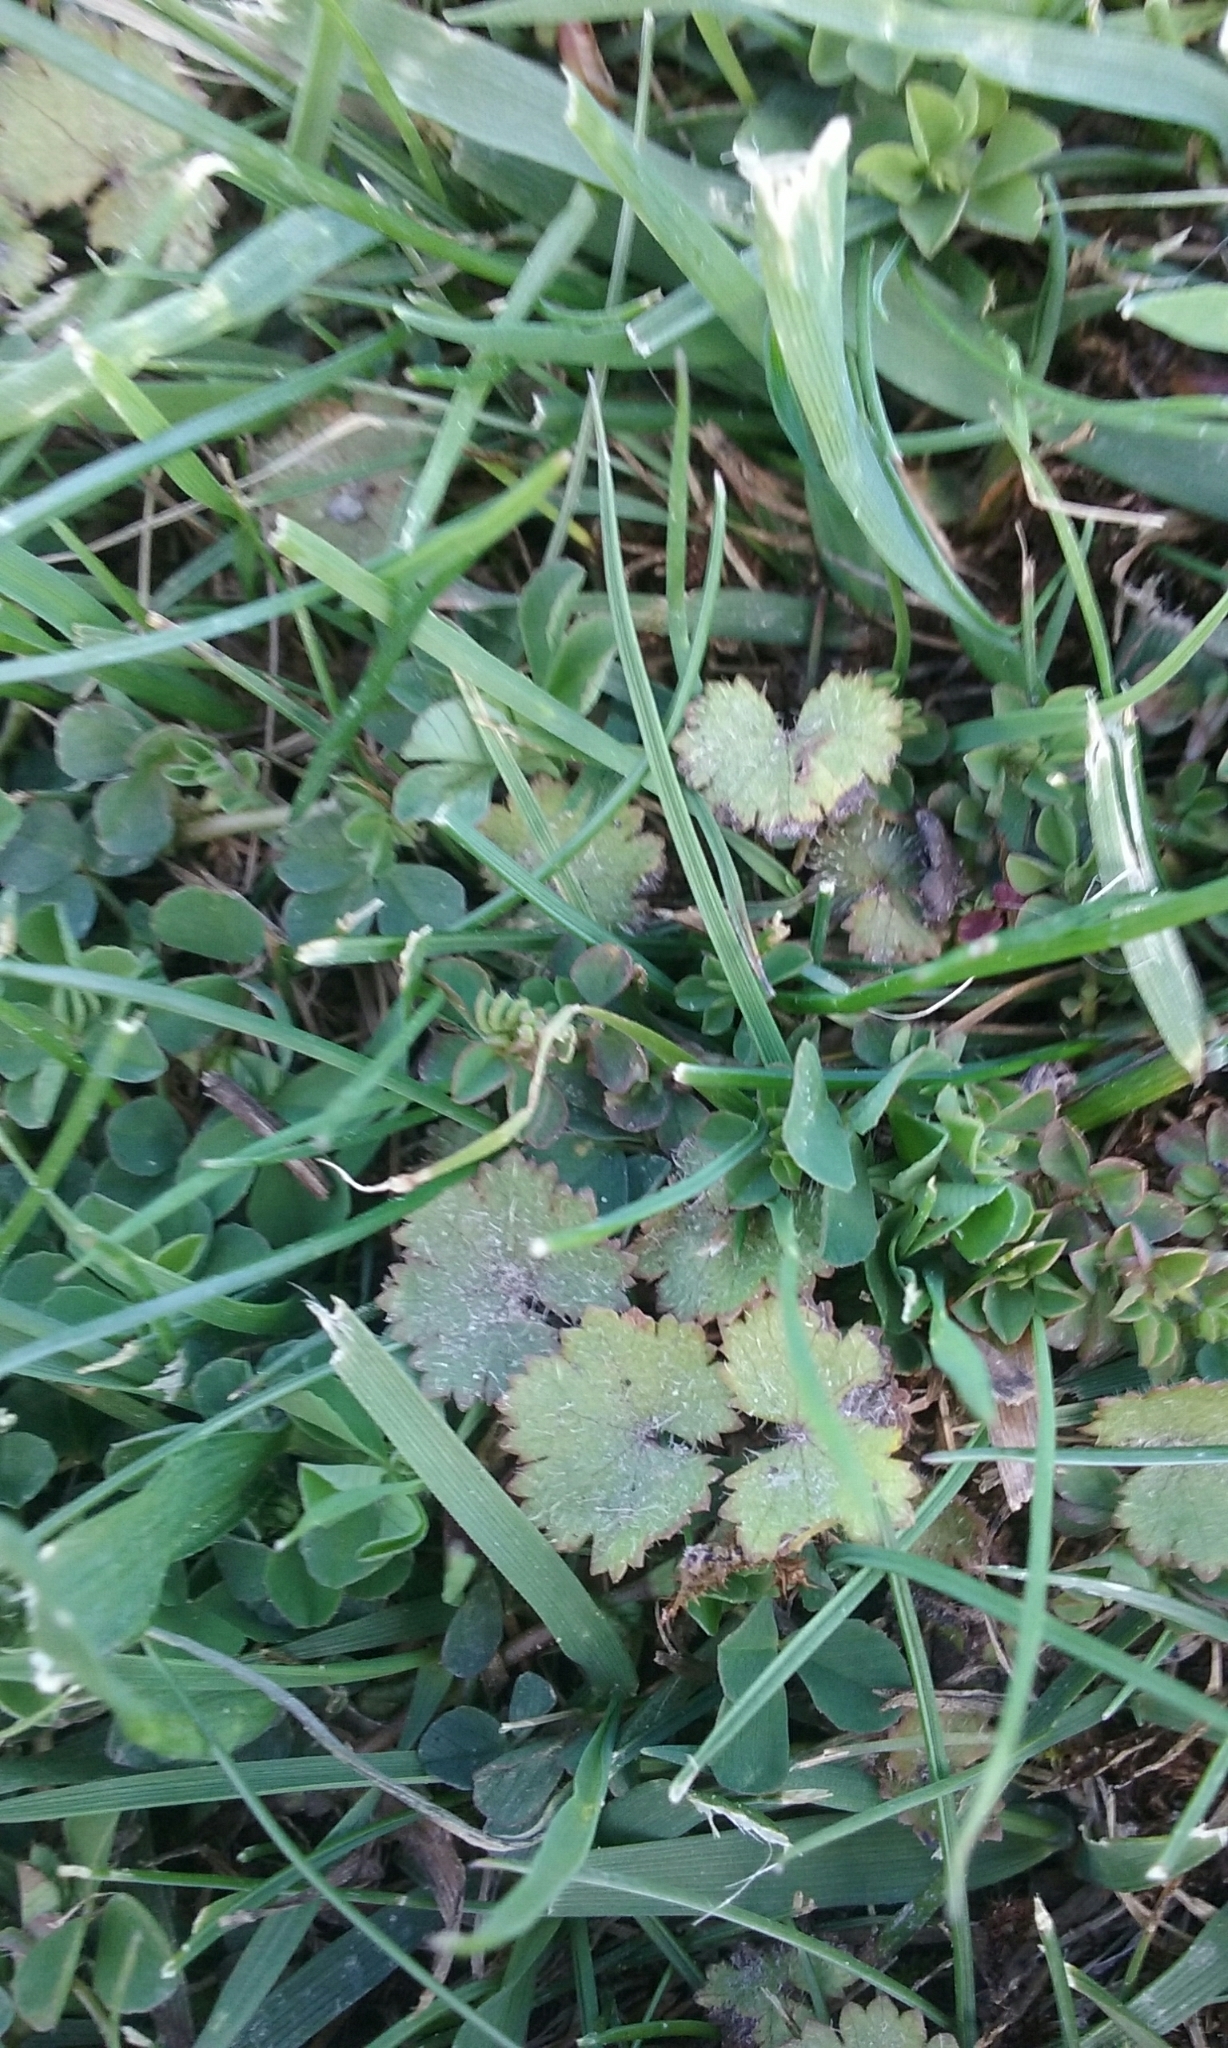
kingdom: Plantae
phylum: Tracheophyta
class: Magnoliopsida
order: Apiales
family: Araliaceae
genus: Hydrocotyle
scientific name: Hydrocotyle moschata
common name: Hairy pennywort
